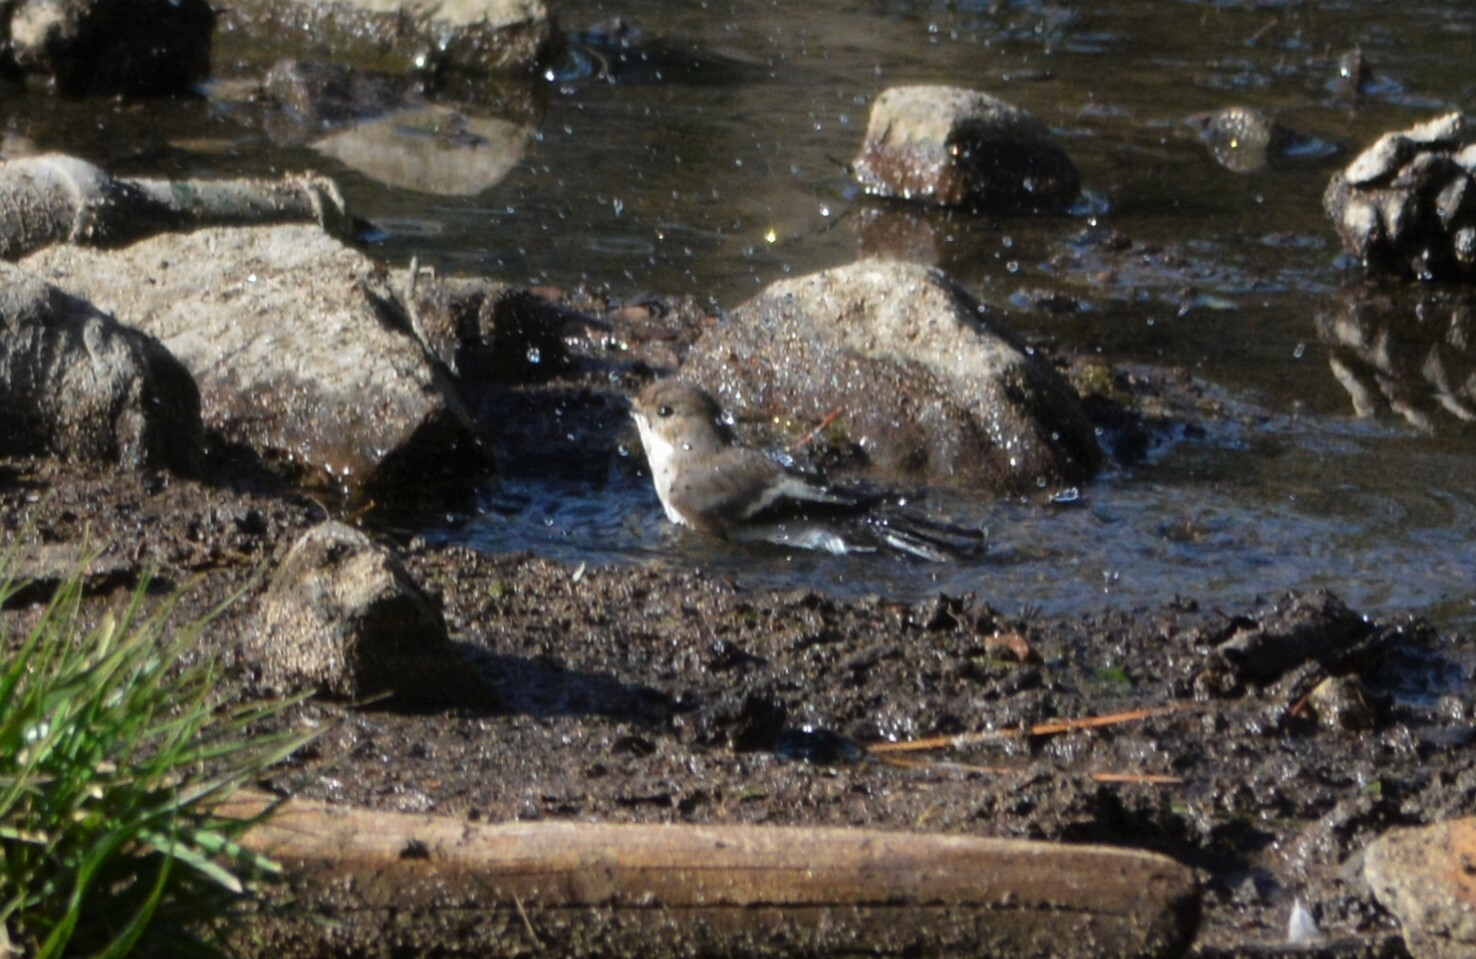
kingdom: Animalia
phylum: Chordata
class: Aves
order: Passeriformes
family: Muscicapidae
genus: Ficedula
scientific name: Ficedula hypoleuca
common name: European pied flycatcher
